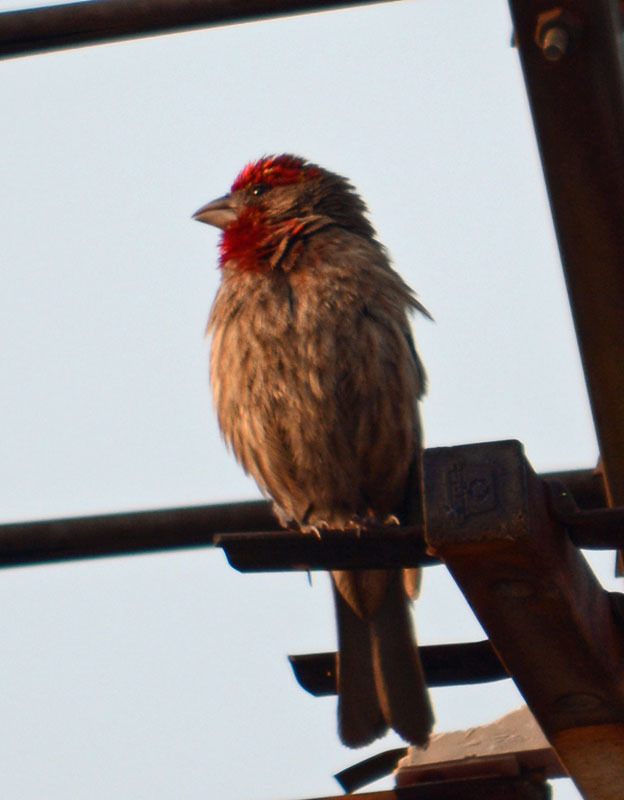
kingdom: Animalia
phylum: Chordata
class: Aves
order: Passeriformes
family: Fringillidae
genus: Haemorhous
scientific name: Haemorhous mexicanus
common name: House finch
